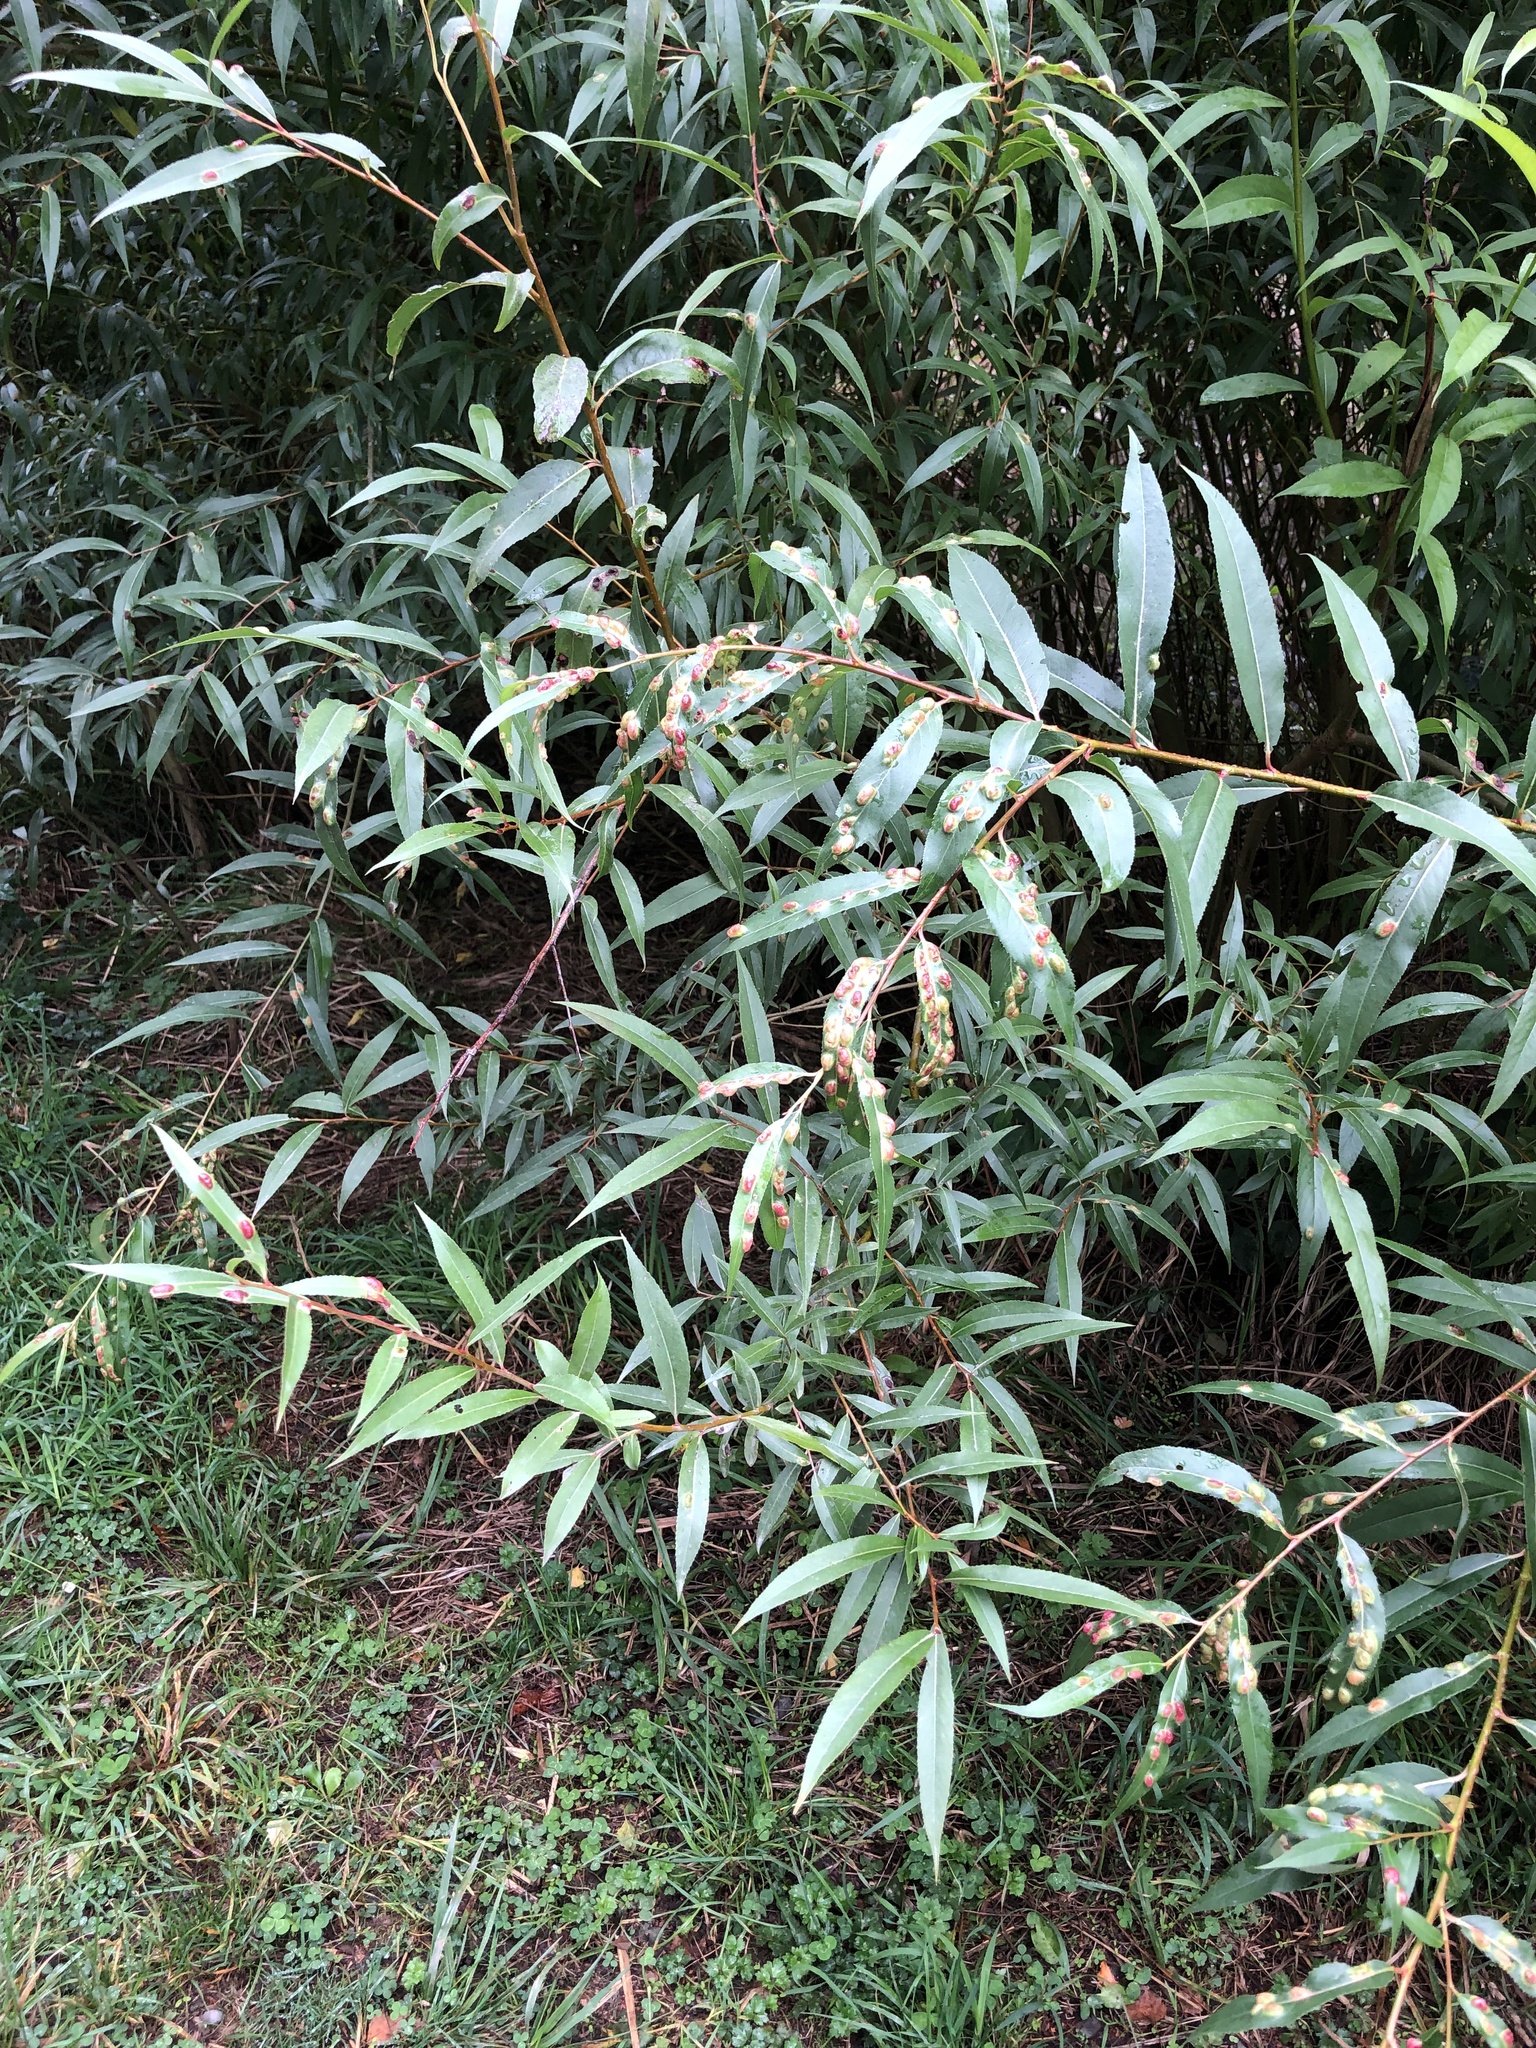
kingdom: Animalia
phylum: Arthropoda
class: Insecta
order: Hymenoptera
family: Tenthredinidae
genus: Pontania
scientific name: Pontania proxima
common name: Common sawfly
